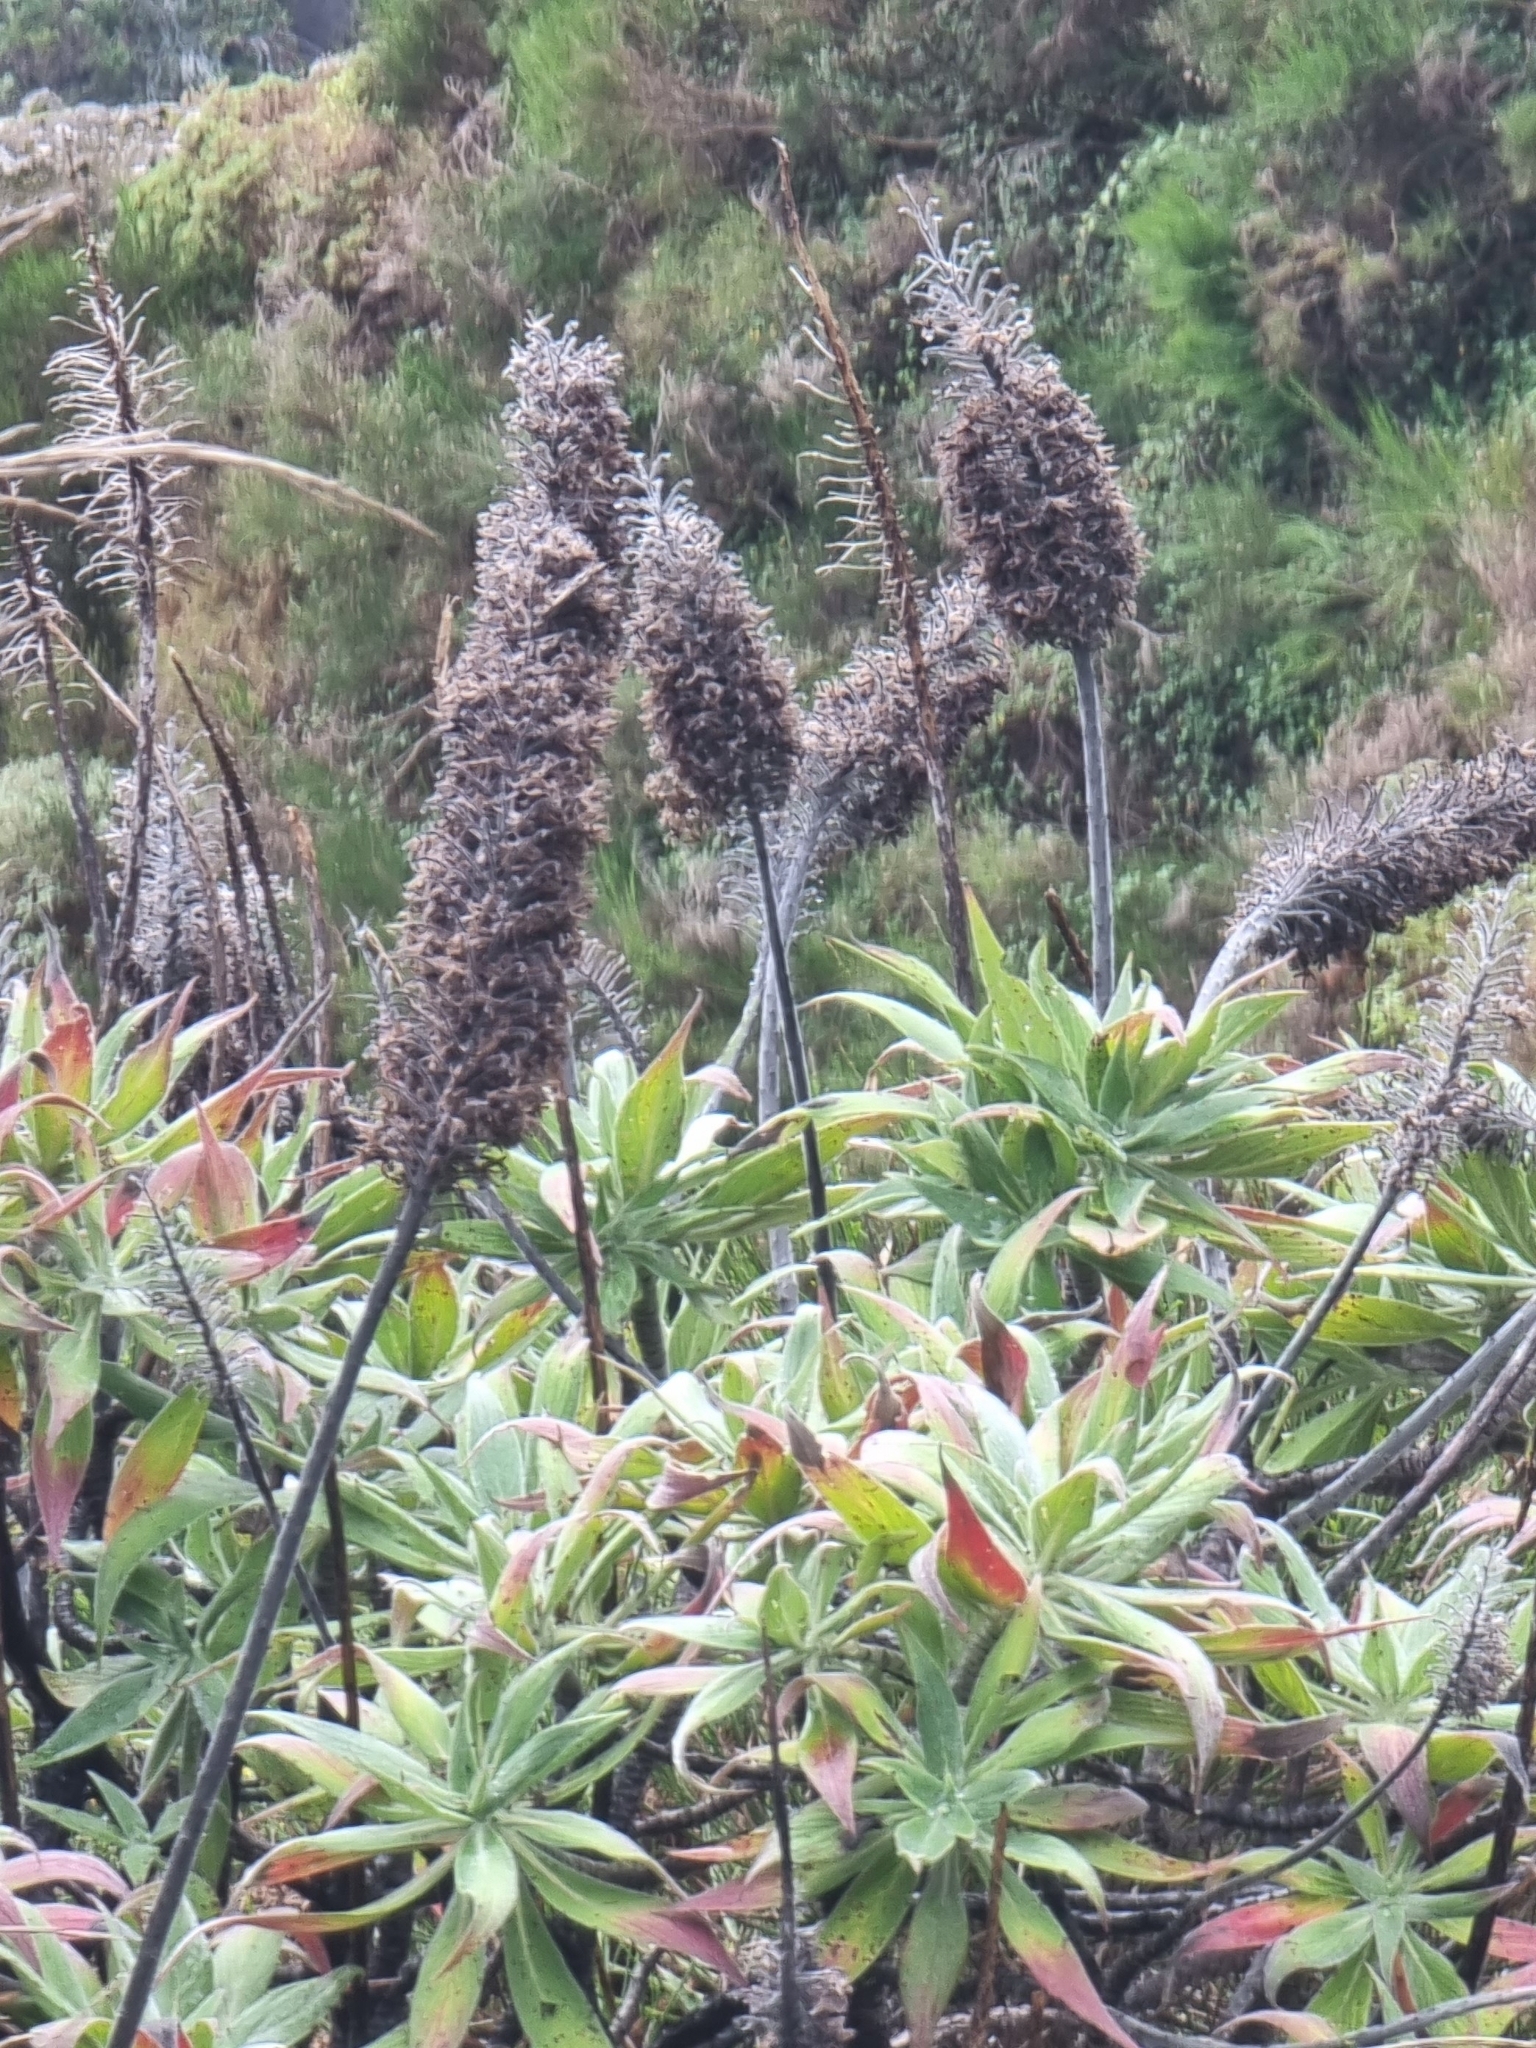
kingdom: Plantae
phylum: Tracheophyta
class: Magnoliopsida
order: Boraginales
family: Boraginaceae
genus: Echium
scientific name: Echium candicans
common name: Pride of madeira
